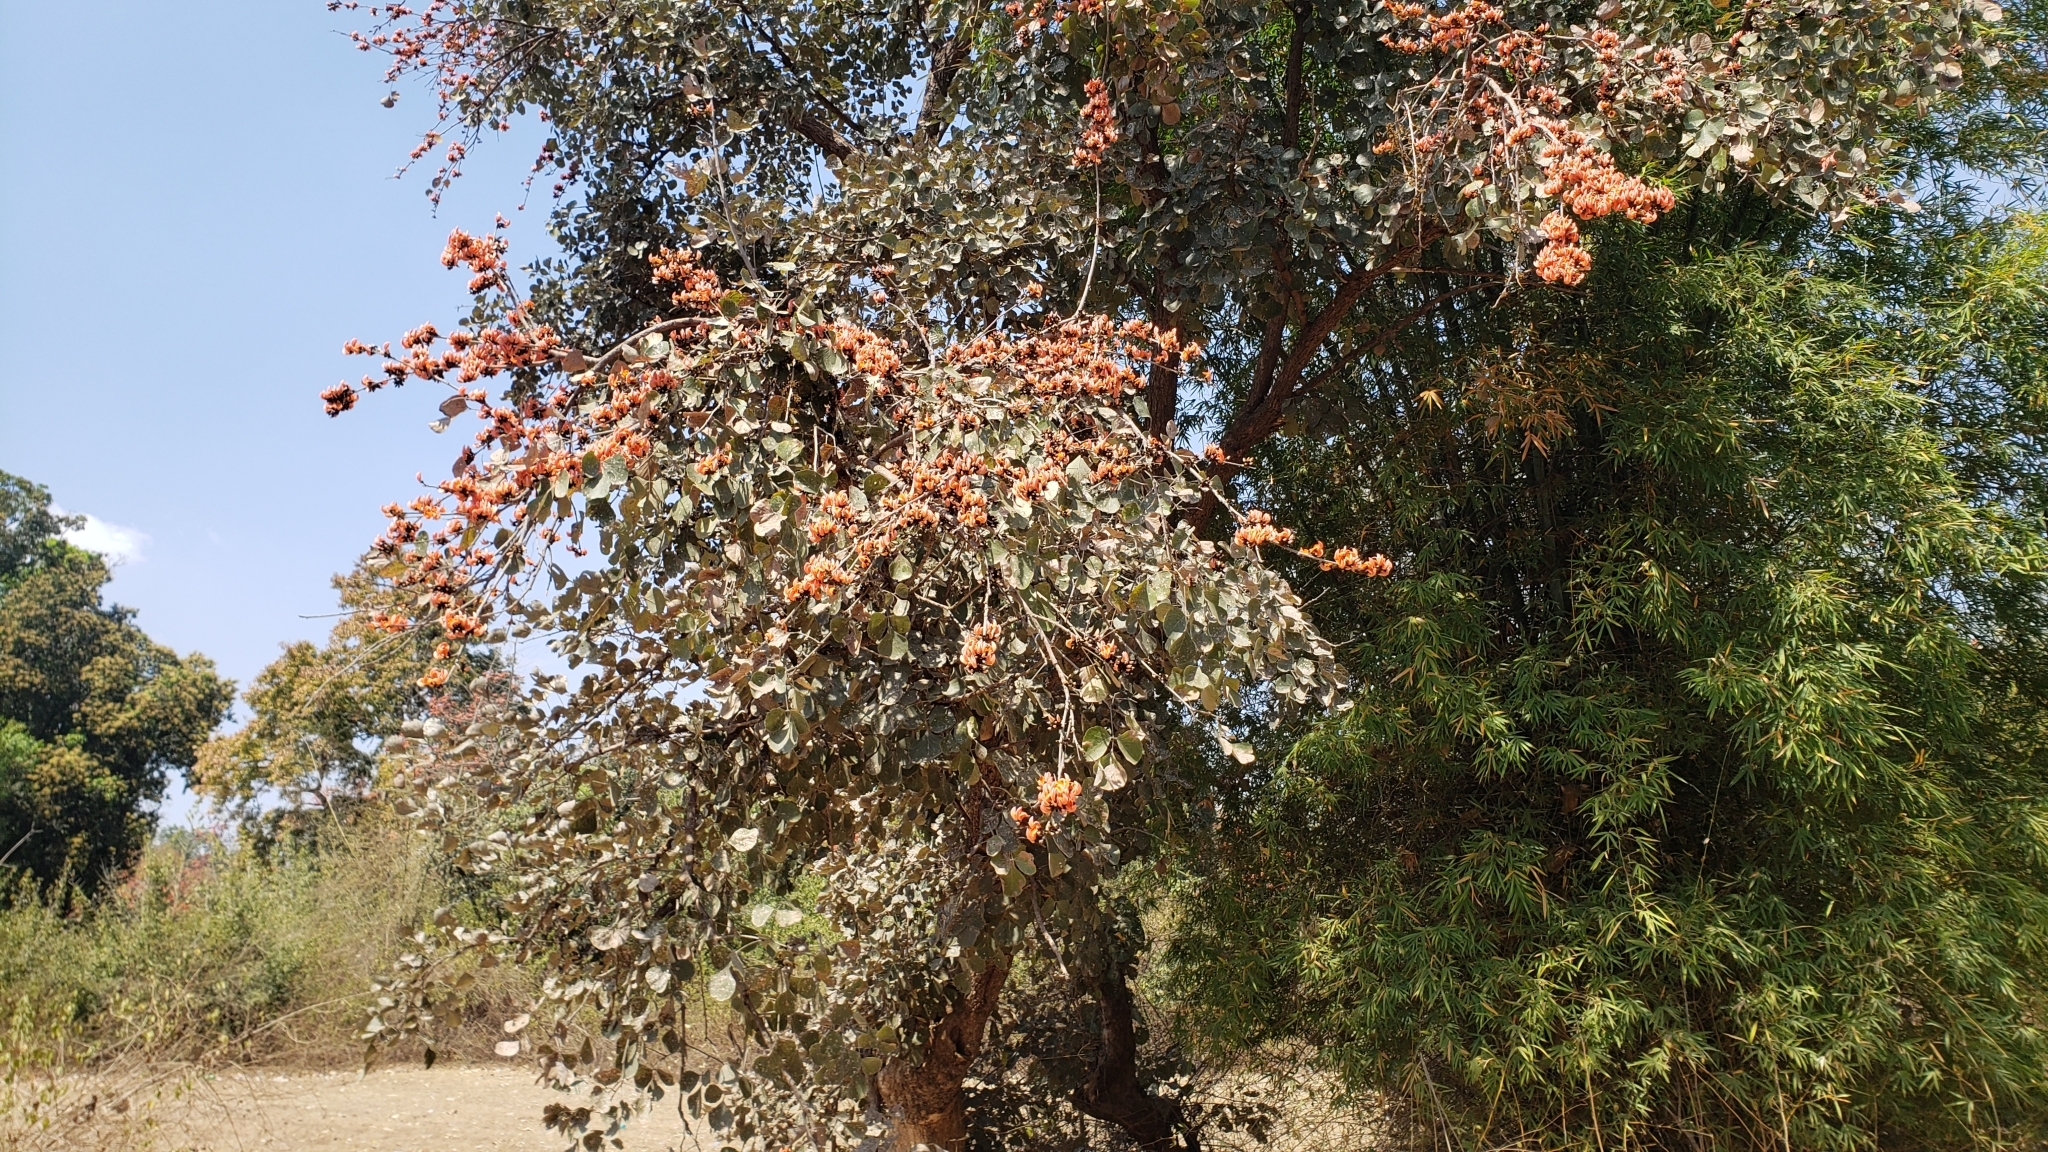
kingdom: Plantae
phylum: Tracheophyta
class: Magnoliopsida
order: Fabales
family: Fabaceae
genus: Butea
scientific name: Butea monosperma
